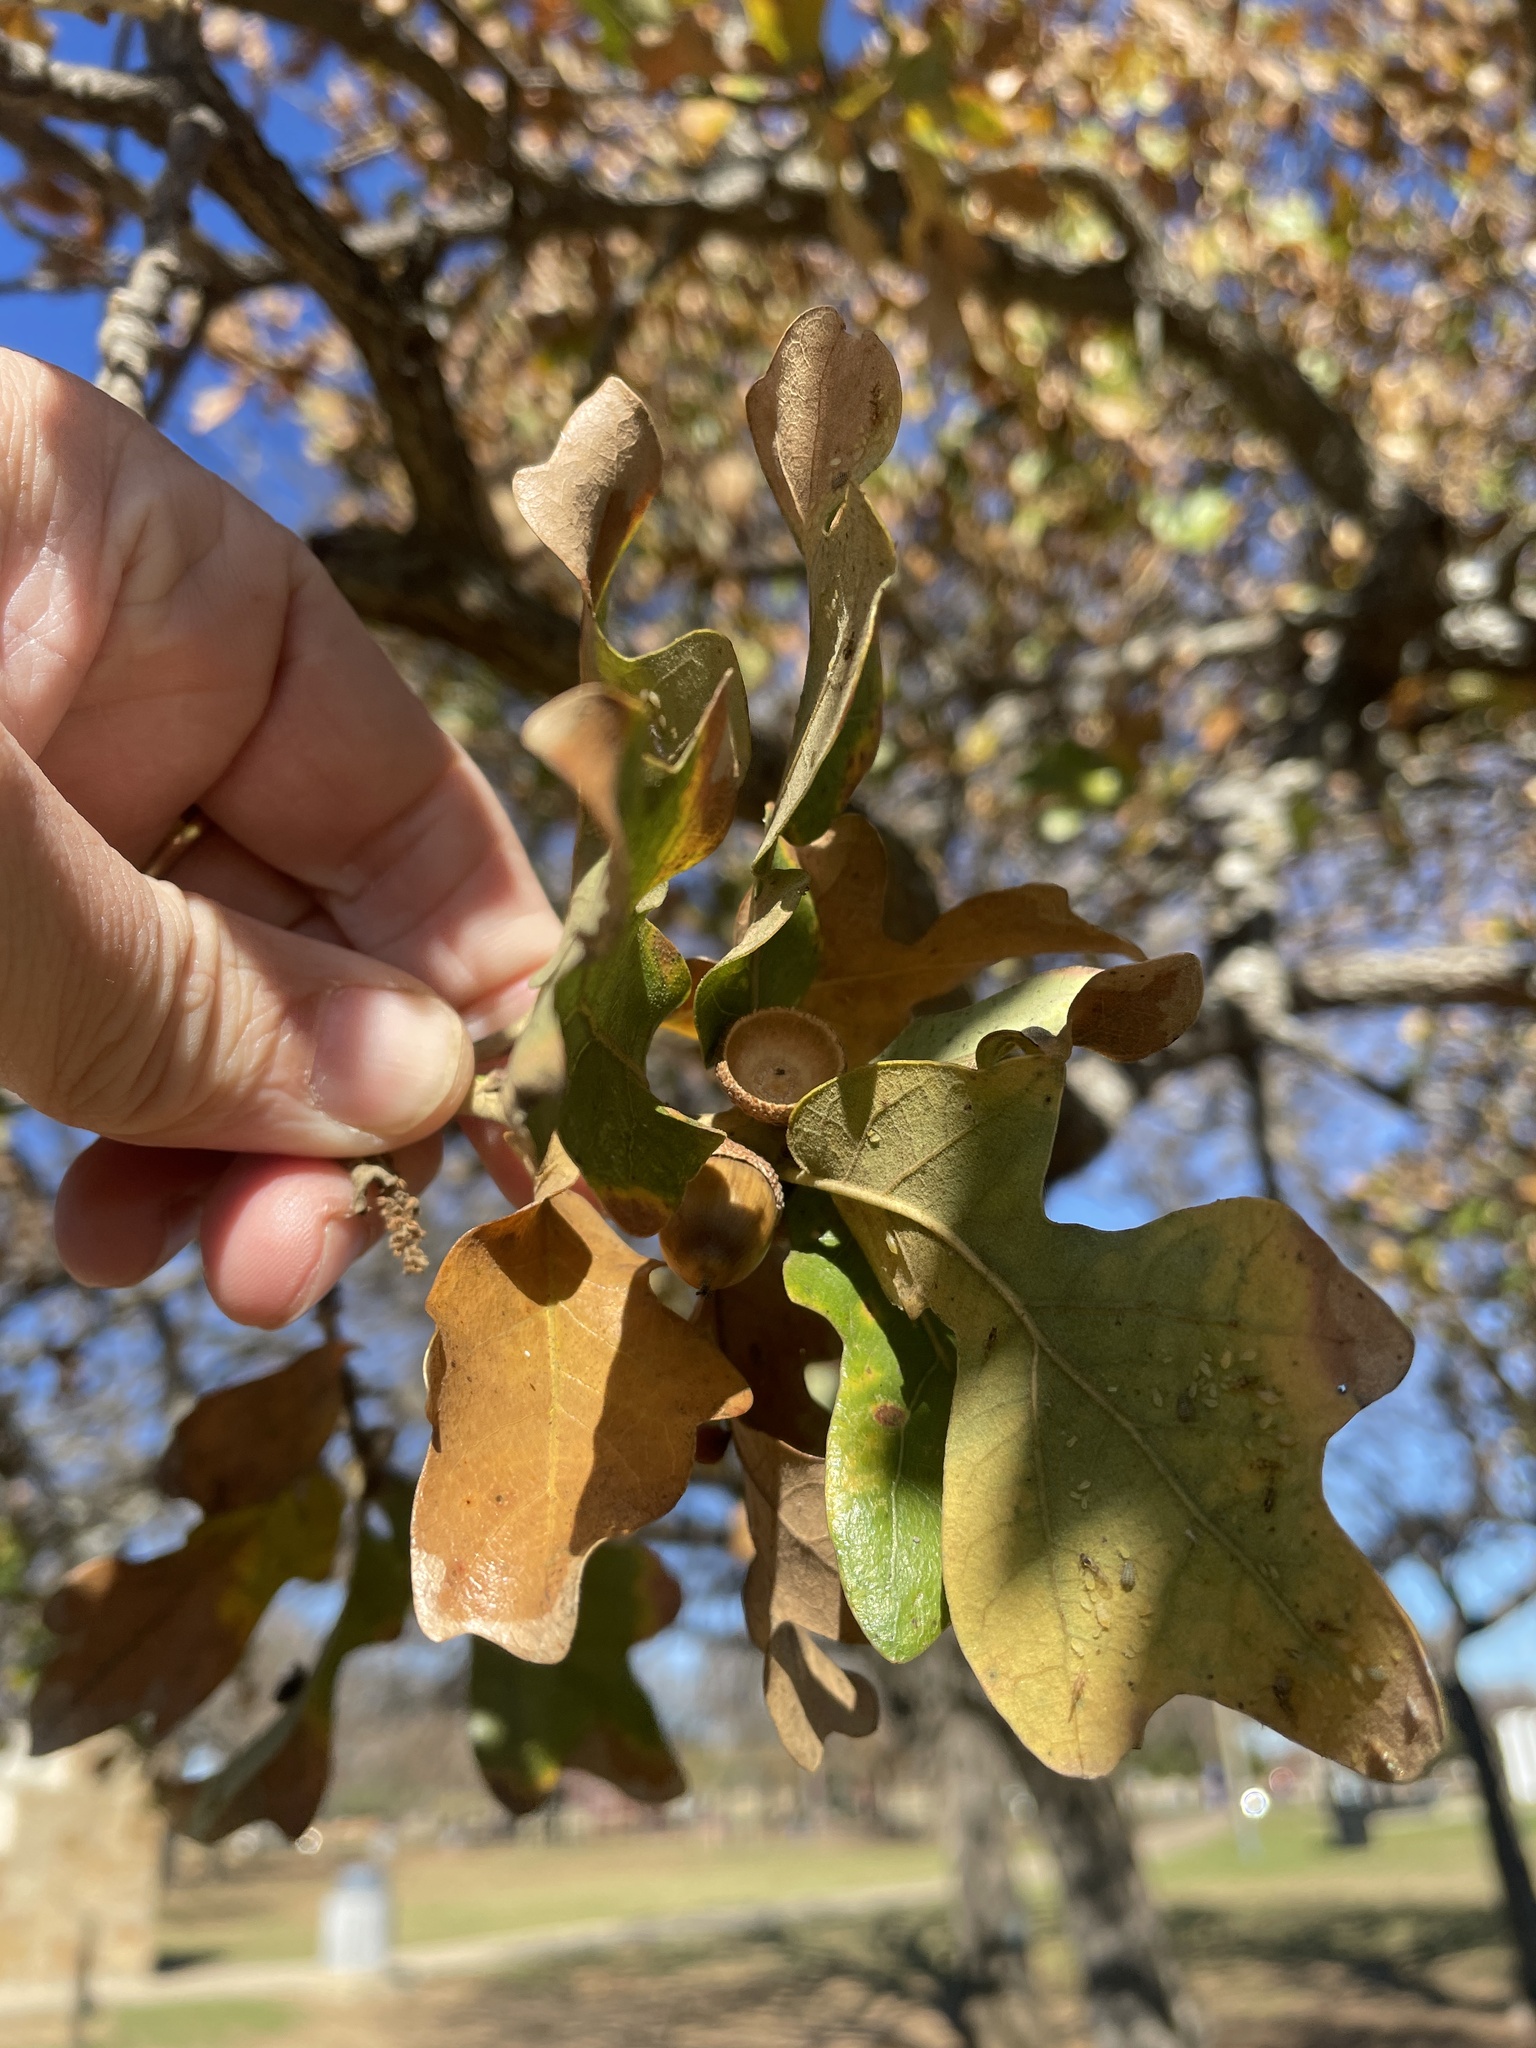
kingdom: Plantae
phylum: Tracheophyta
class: Magnoliopsida
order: Fagales
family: Fagaceae
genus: Quercus
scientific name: Quercus stellata
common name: Post oak
